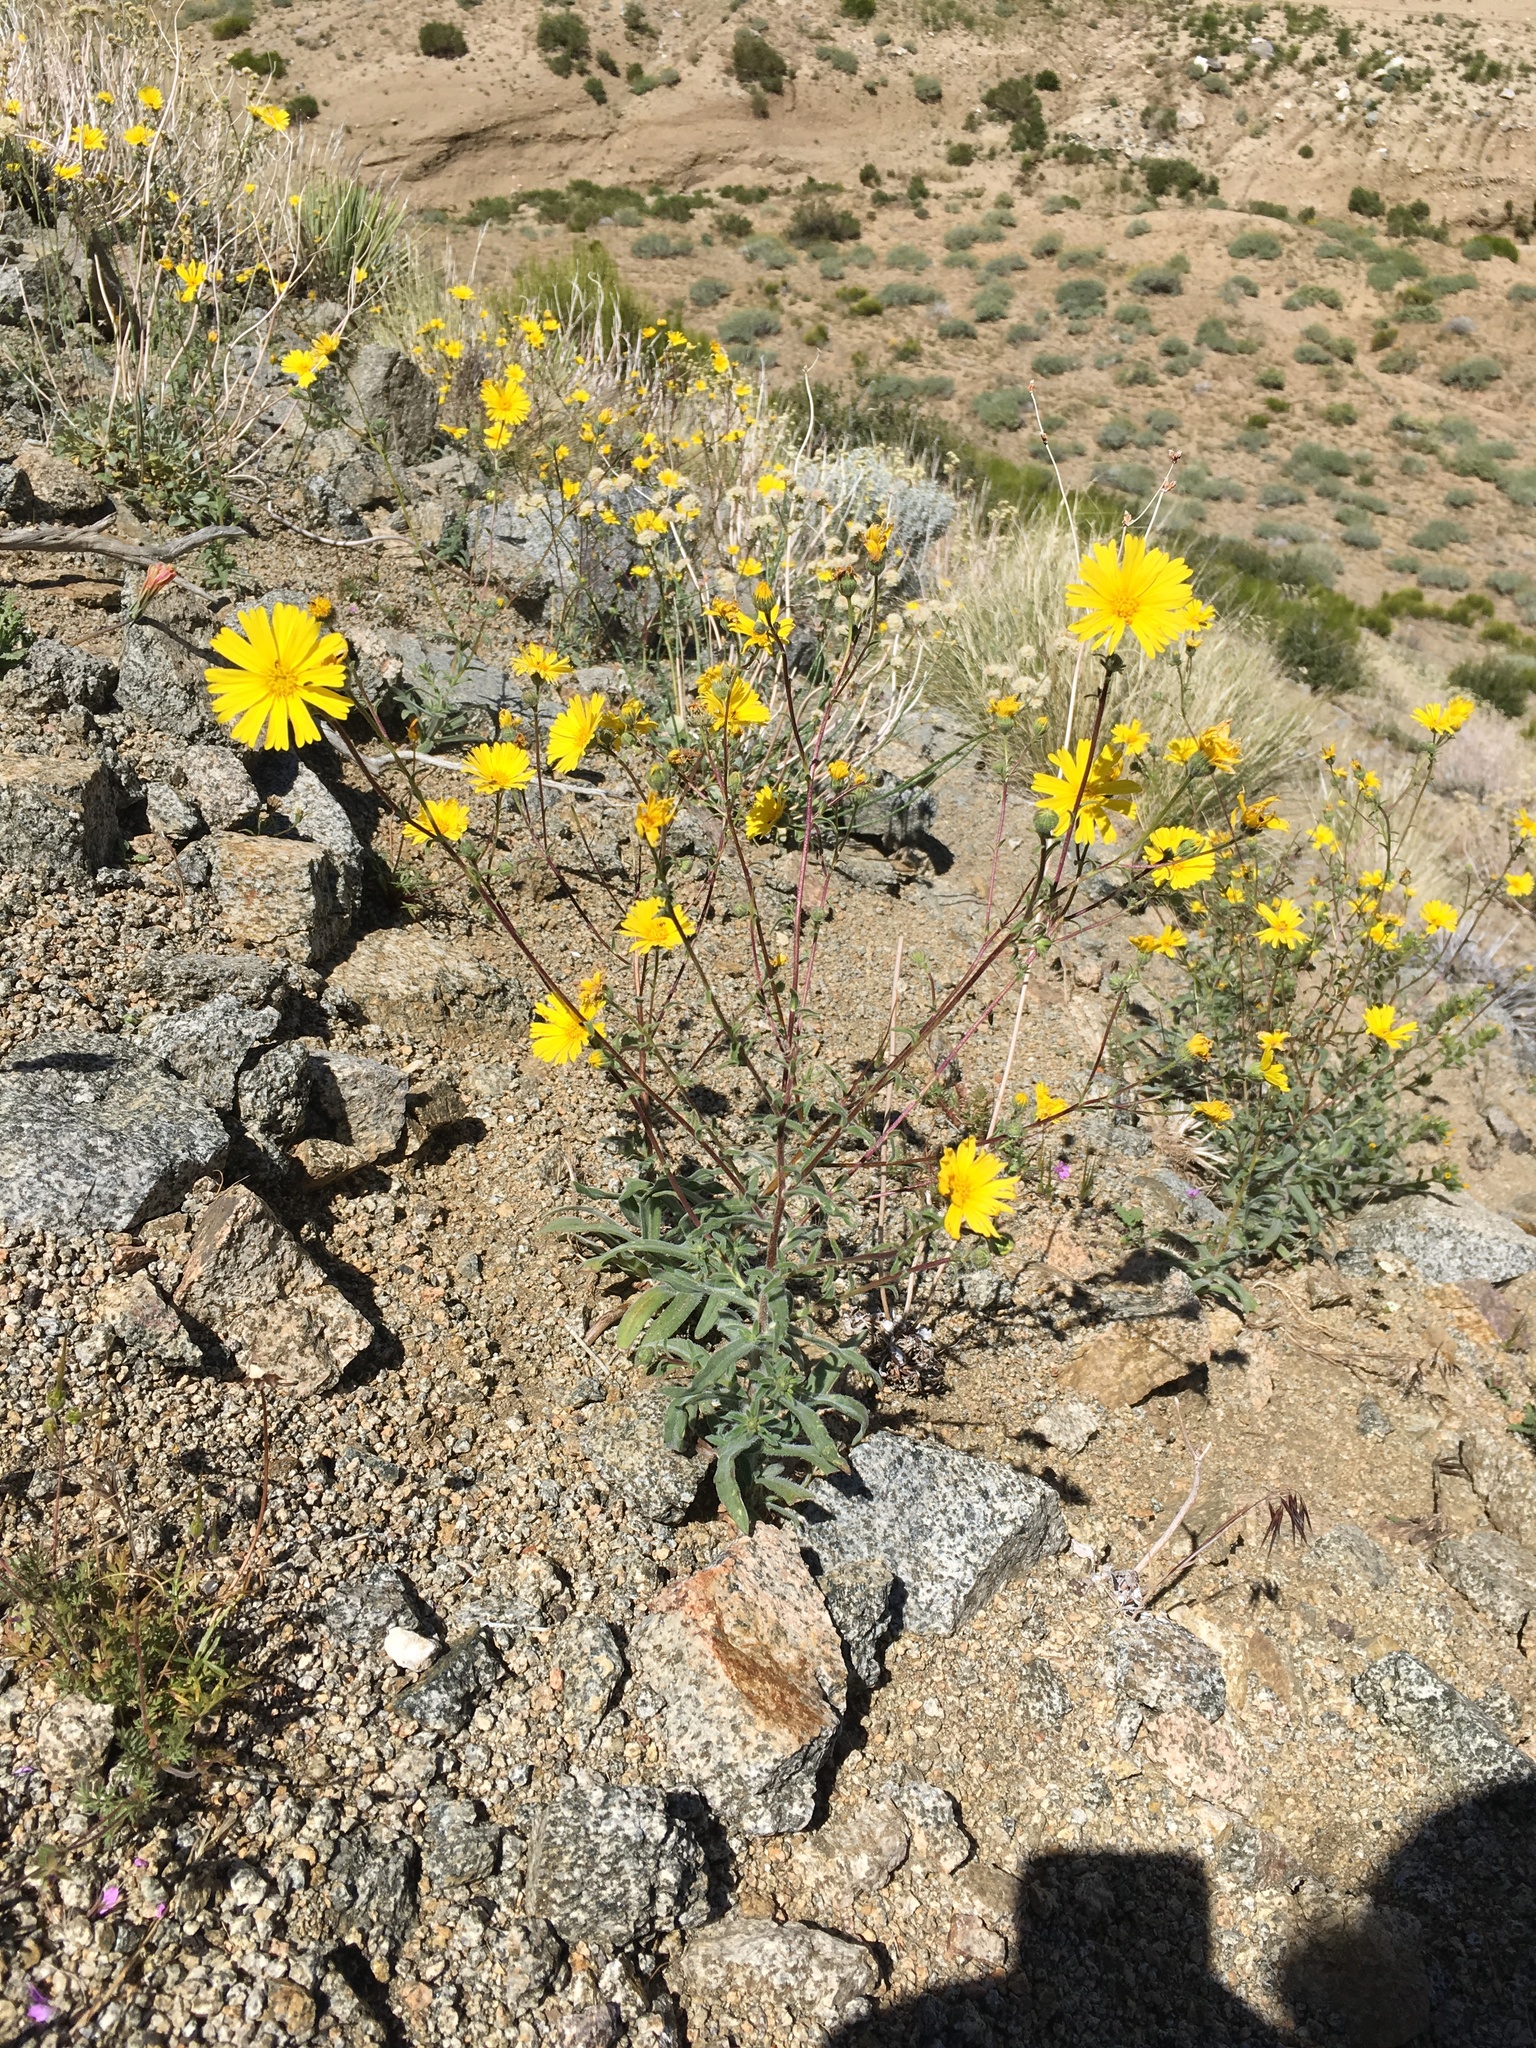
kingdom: Plantae
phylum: Tracheophyta
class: Magnoliopsida
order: Asterales
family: Asteraceae
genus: Madia
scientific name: Madia elegans
